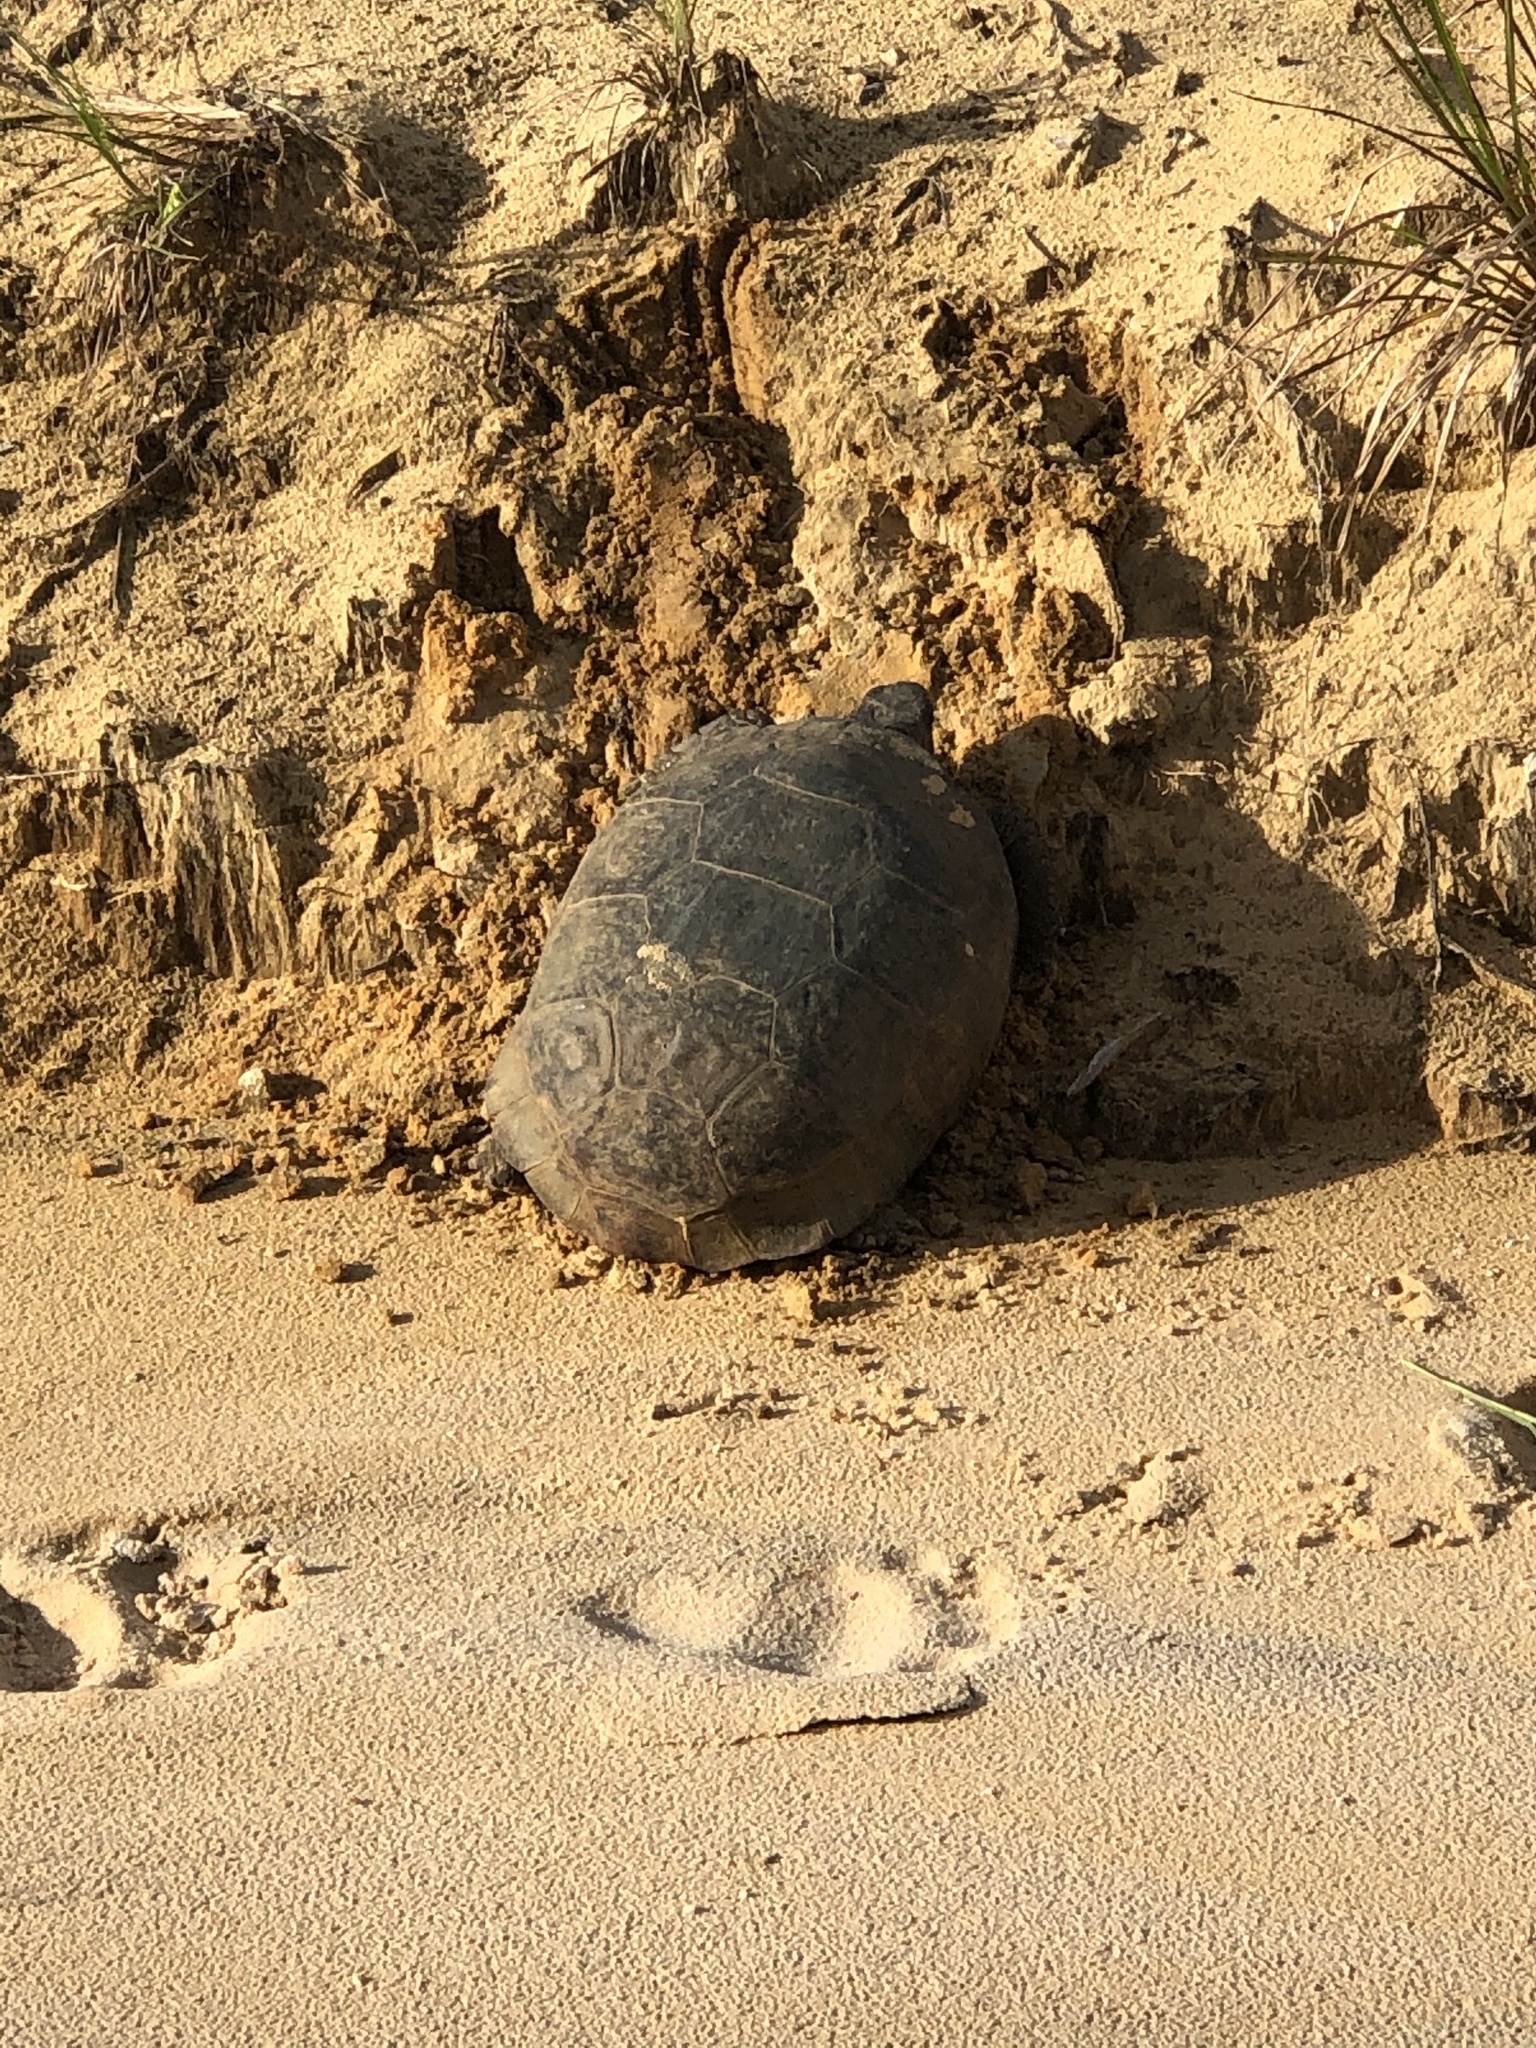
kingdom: Animalia
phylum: Chordata
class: Testudines
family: Testudinidae
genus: Gopherus
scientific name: Gopherus polyphemus
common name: Florida gopher tortoise
